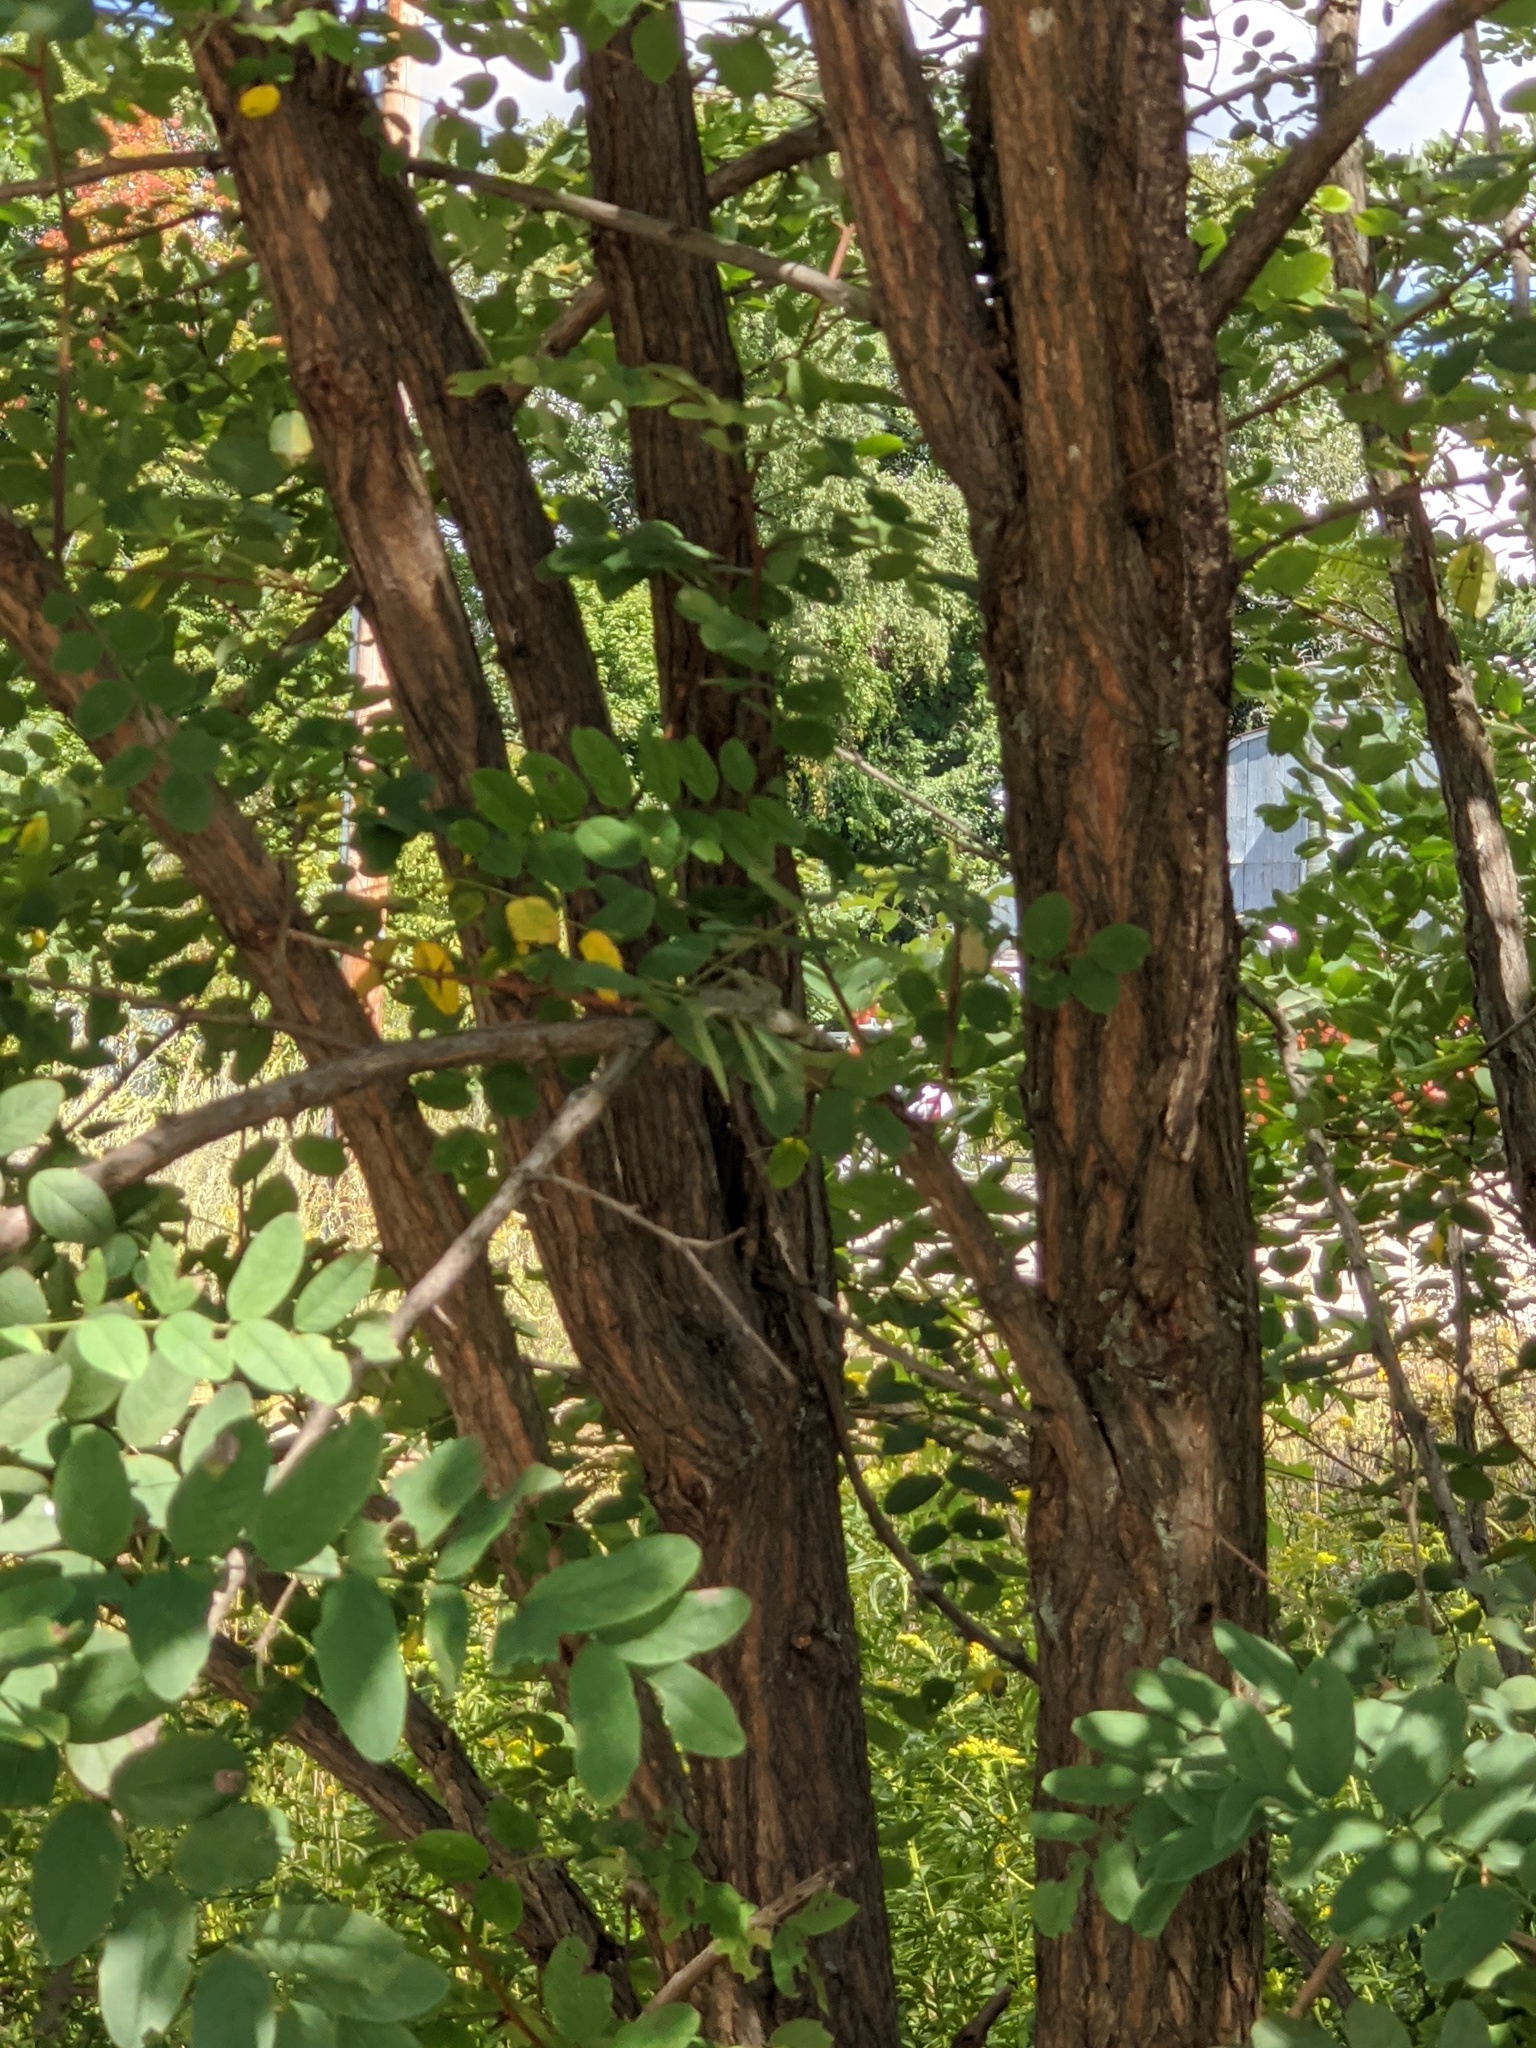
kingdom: Plantae
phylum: Tracheophyta
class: Magnoliopsida
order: Fabales
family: Fabaceae
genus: Robinia
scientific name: Robinia pseudoacacia
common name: Black locust
